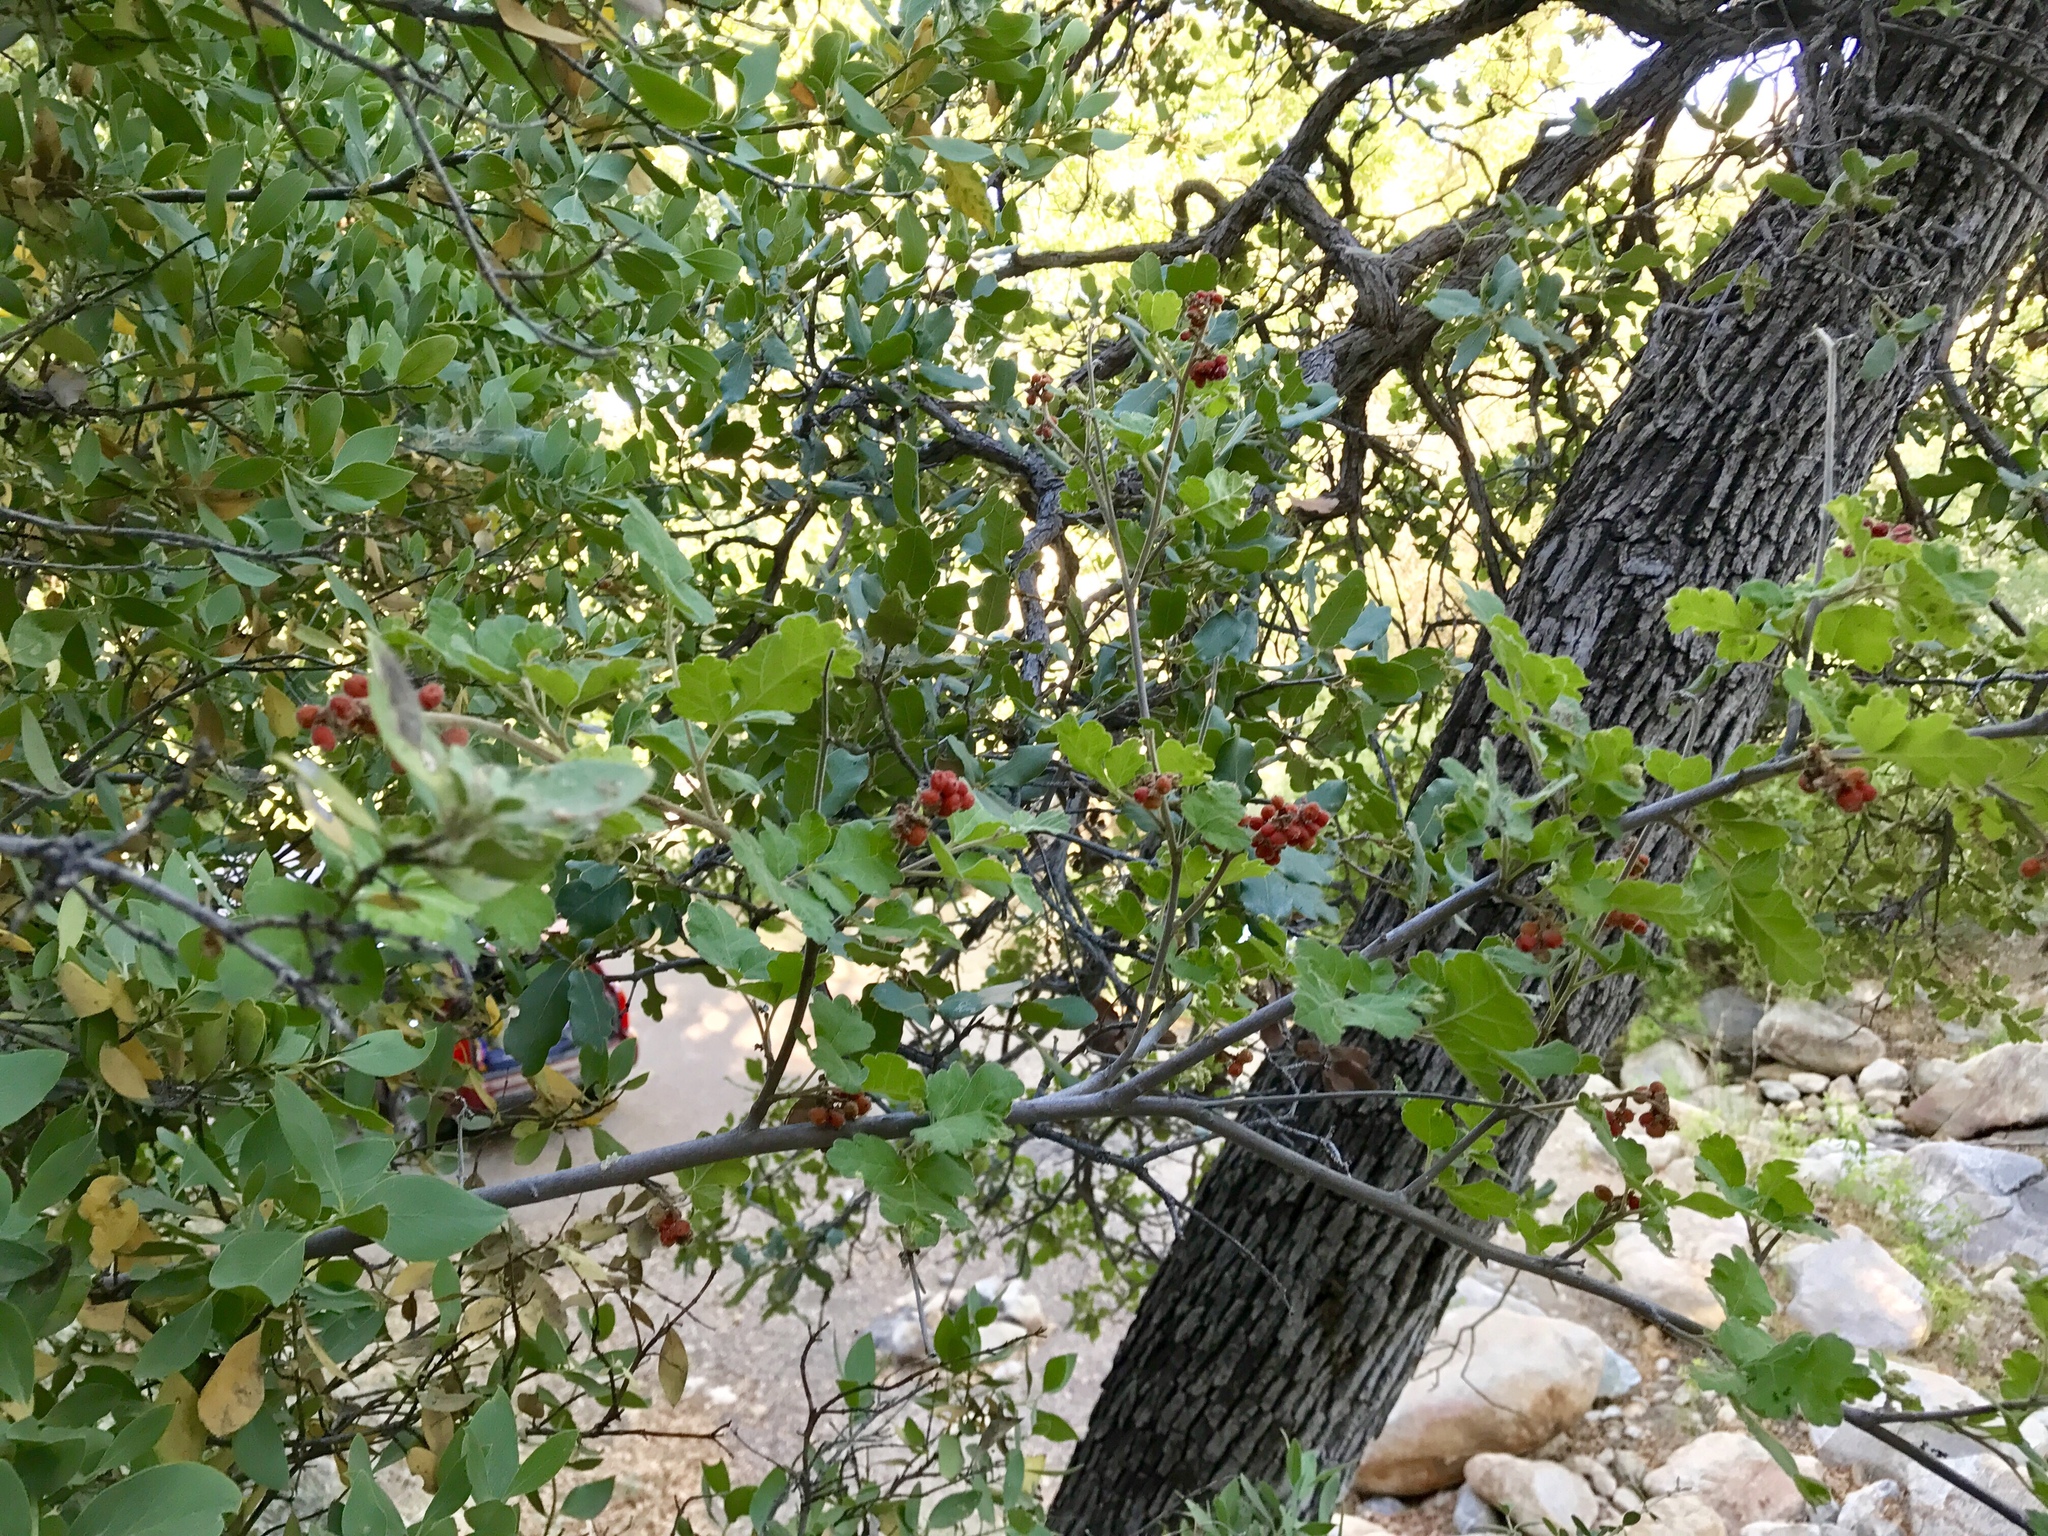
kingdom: Plantae
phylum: Tracheophyta
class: Magnoliopsida
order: Sapindales
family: Anacardiaceae
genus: Rhus
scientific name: Rhus aromatica
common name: Aromatic sumac
